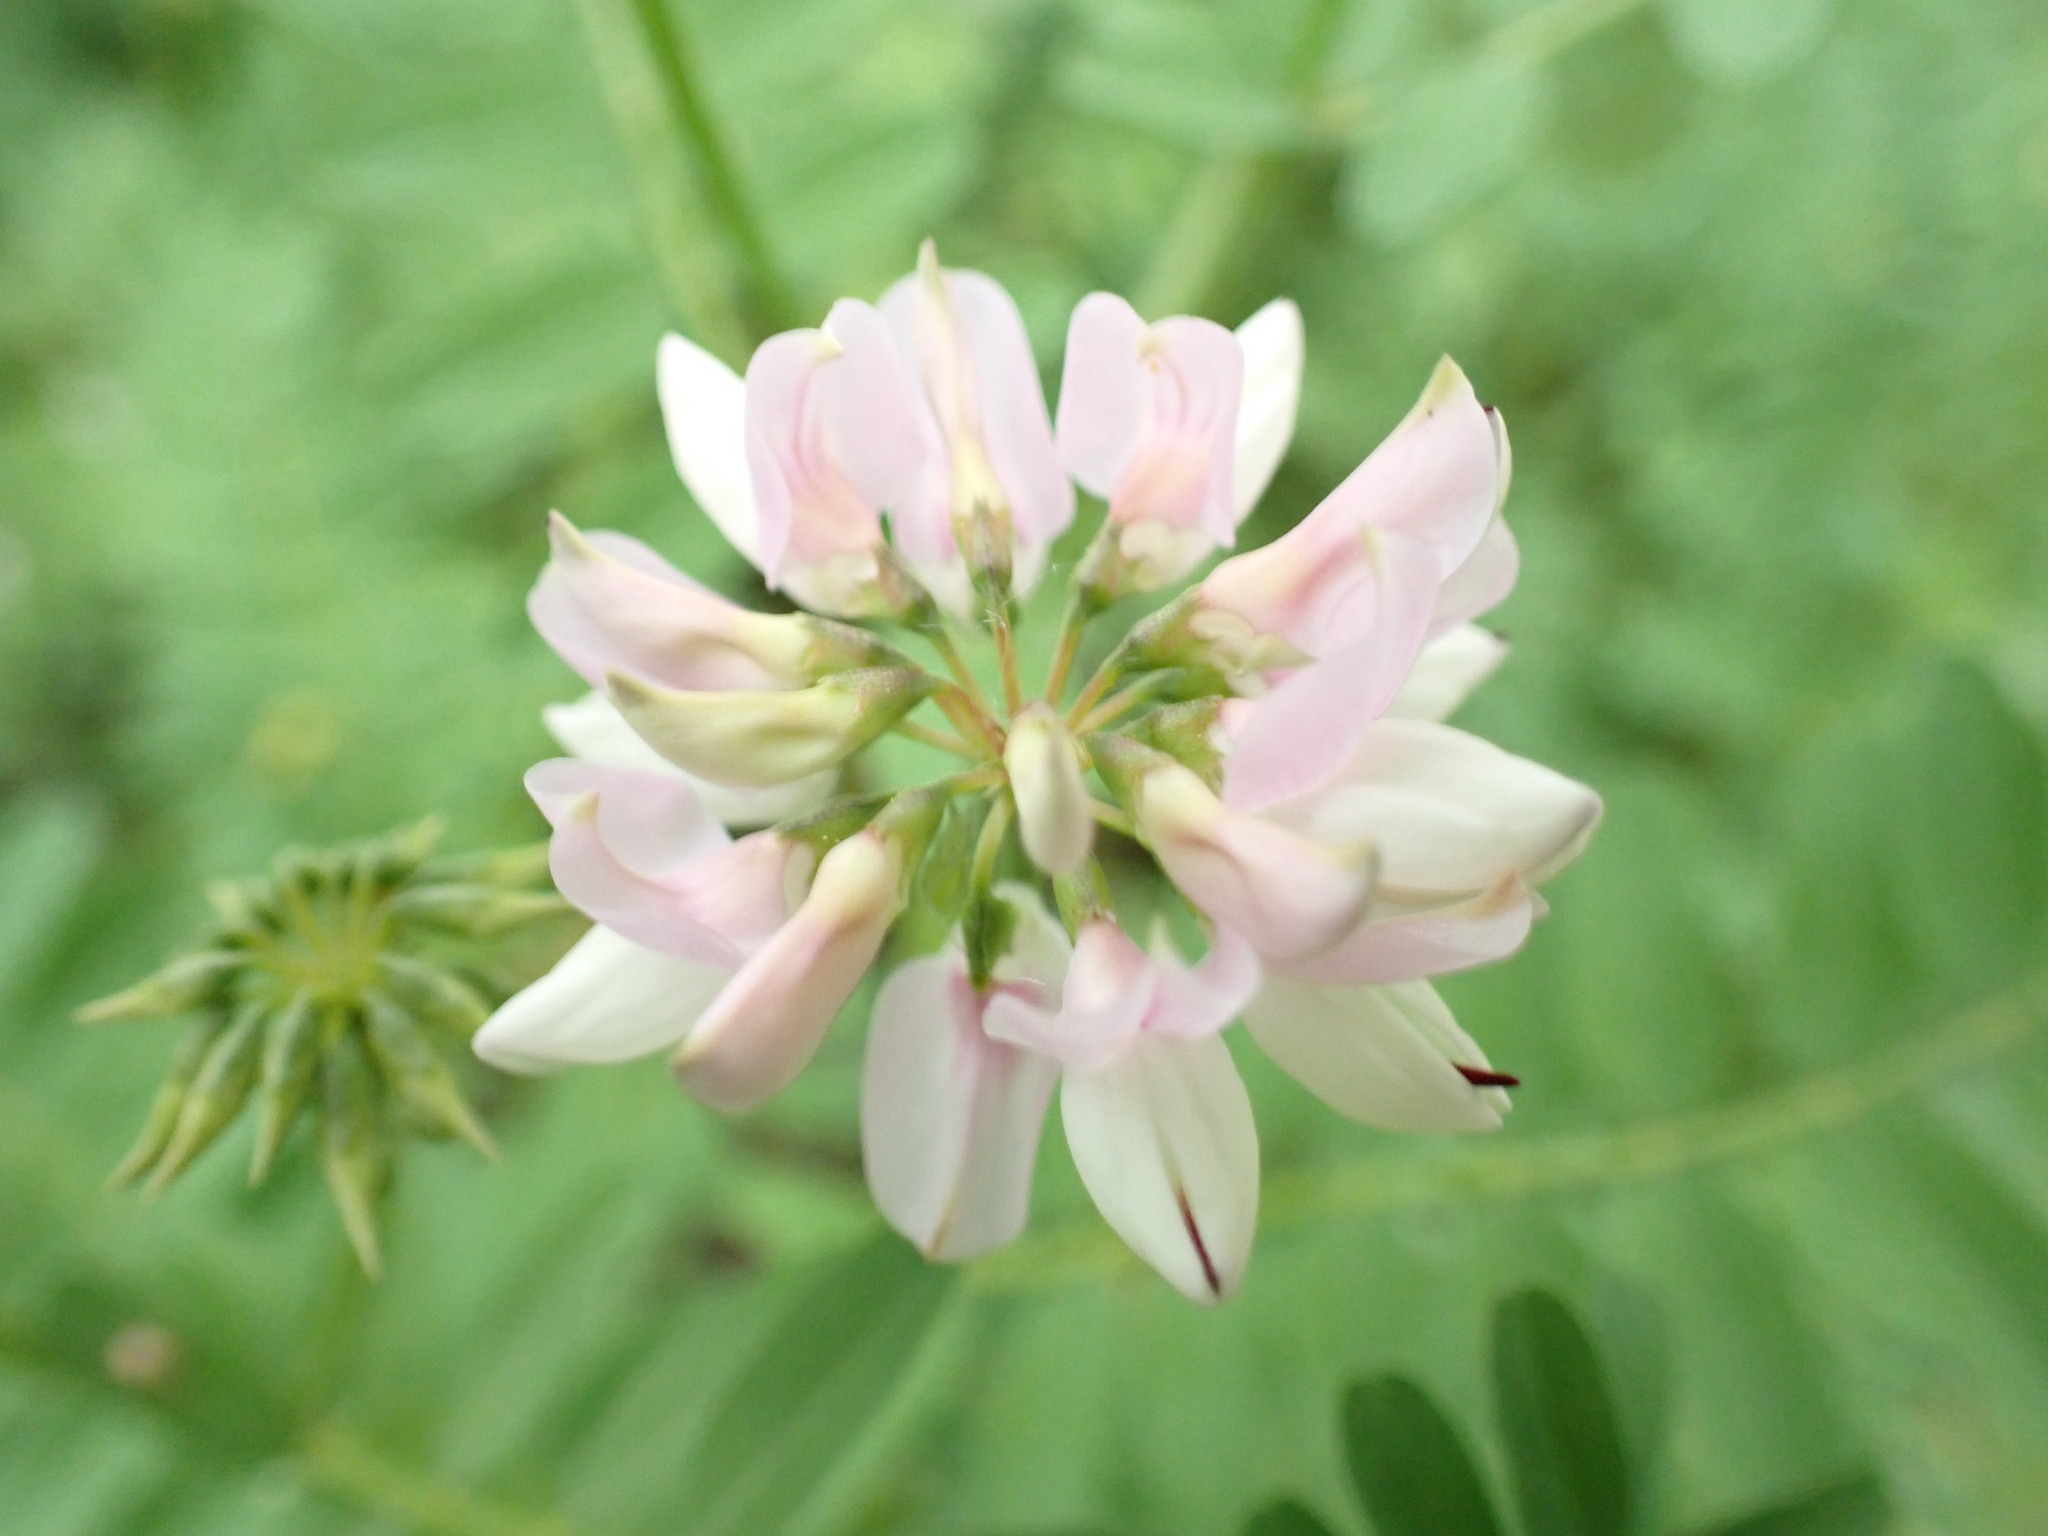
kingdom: Plantae
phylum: Tracheophyta
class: Magnoliopsida
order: Fabales
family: Fabaceae
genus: Coronilla
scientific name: Coronilla varia
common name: Crownvetch
